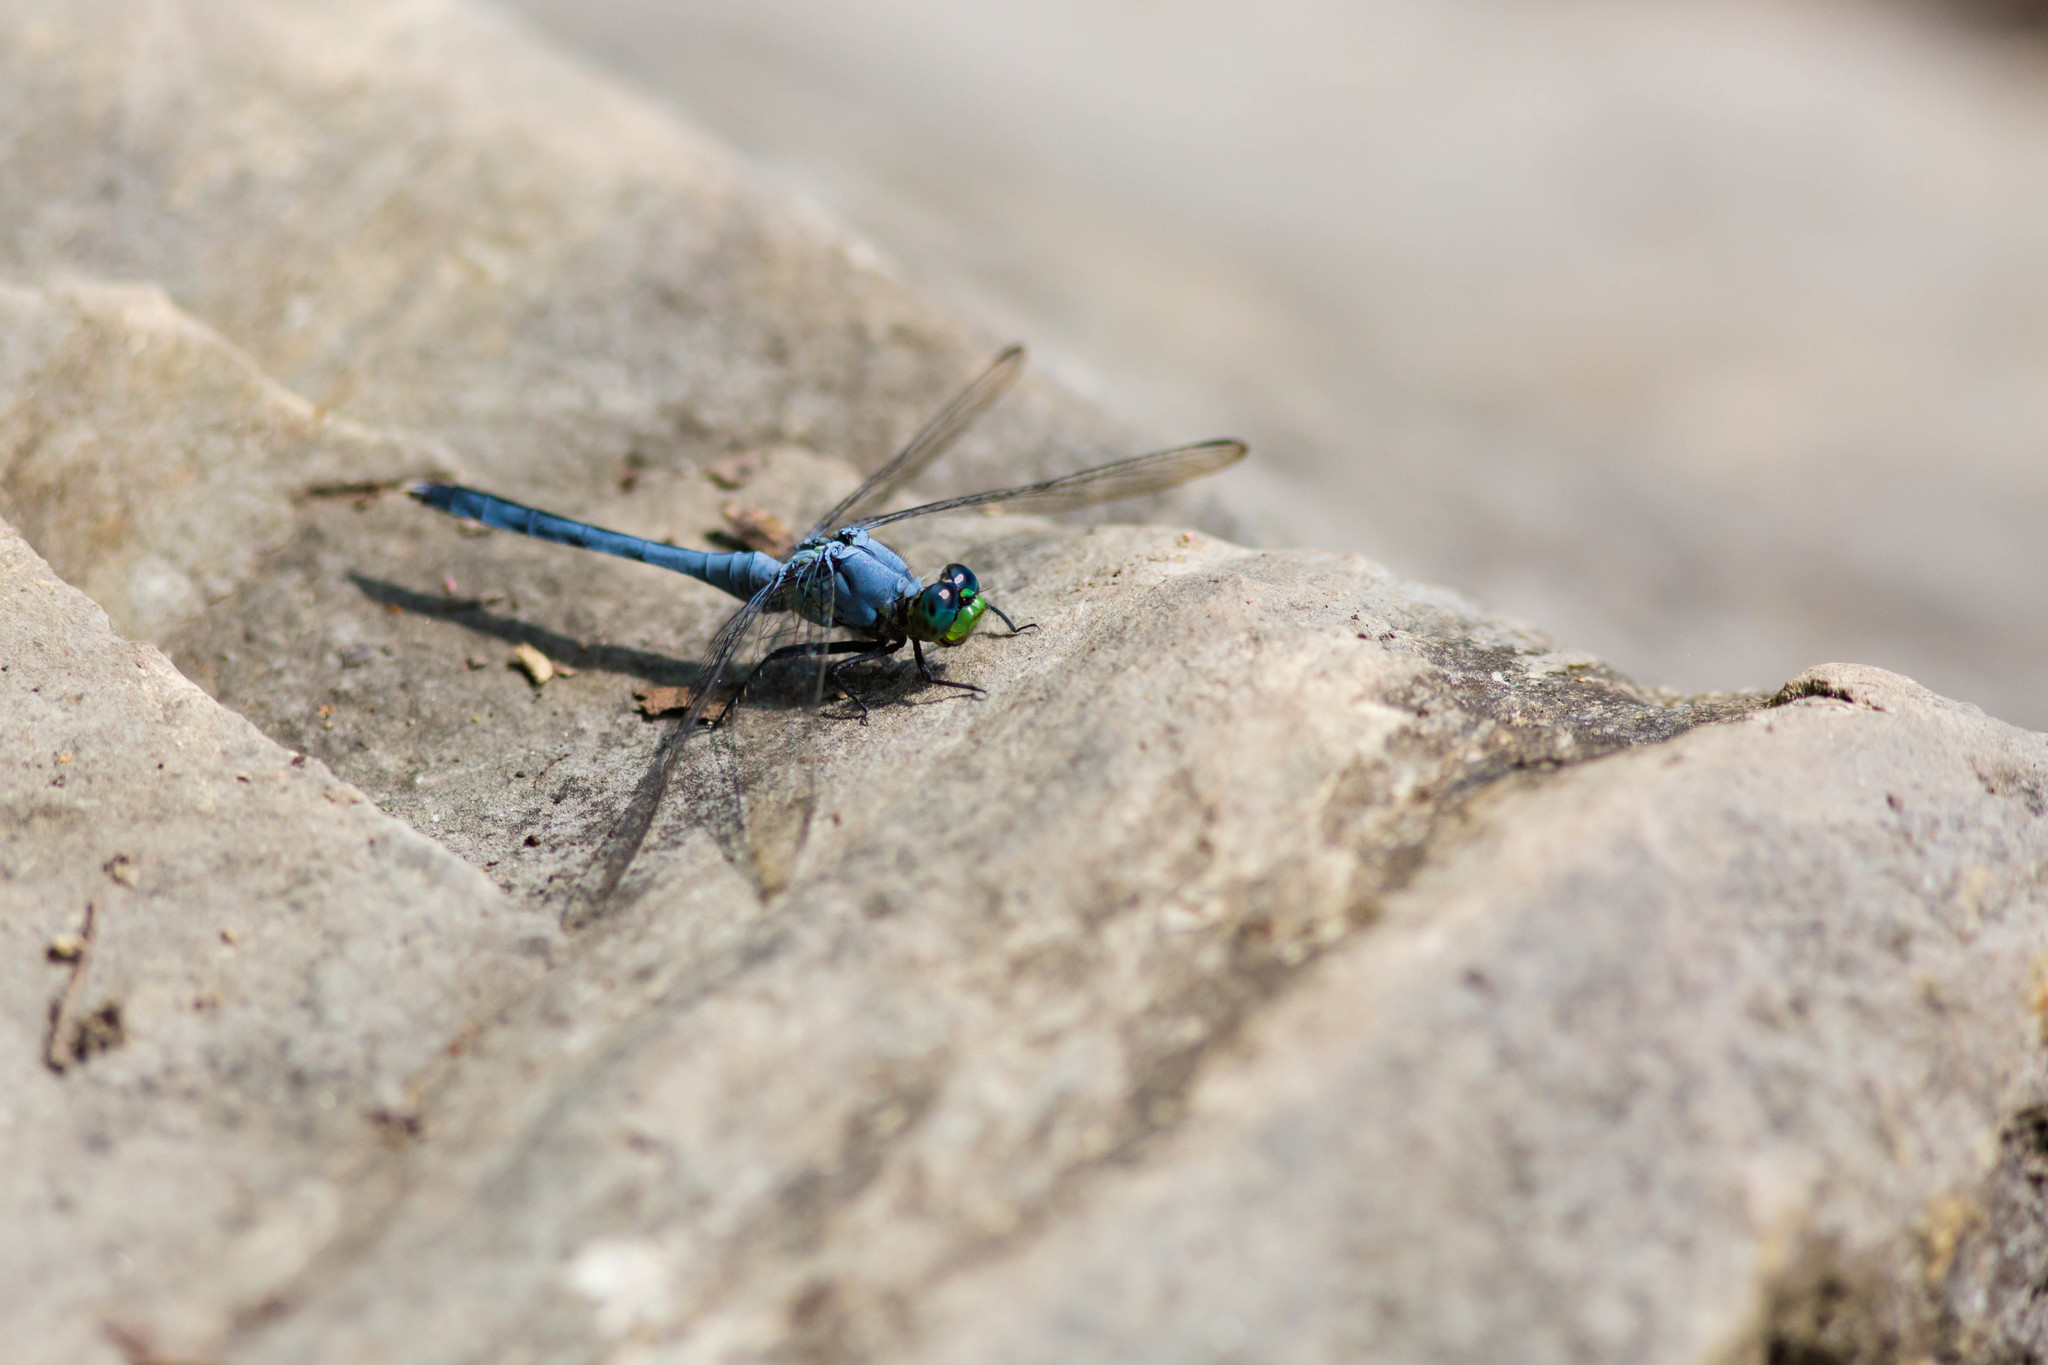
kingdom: Animalia
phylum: Arthropoda
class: Insecta
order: Odonata
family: Libellulidae
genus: Erythemis
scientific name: Erythemis simplicicollis
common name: Eastern pondhawk
